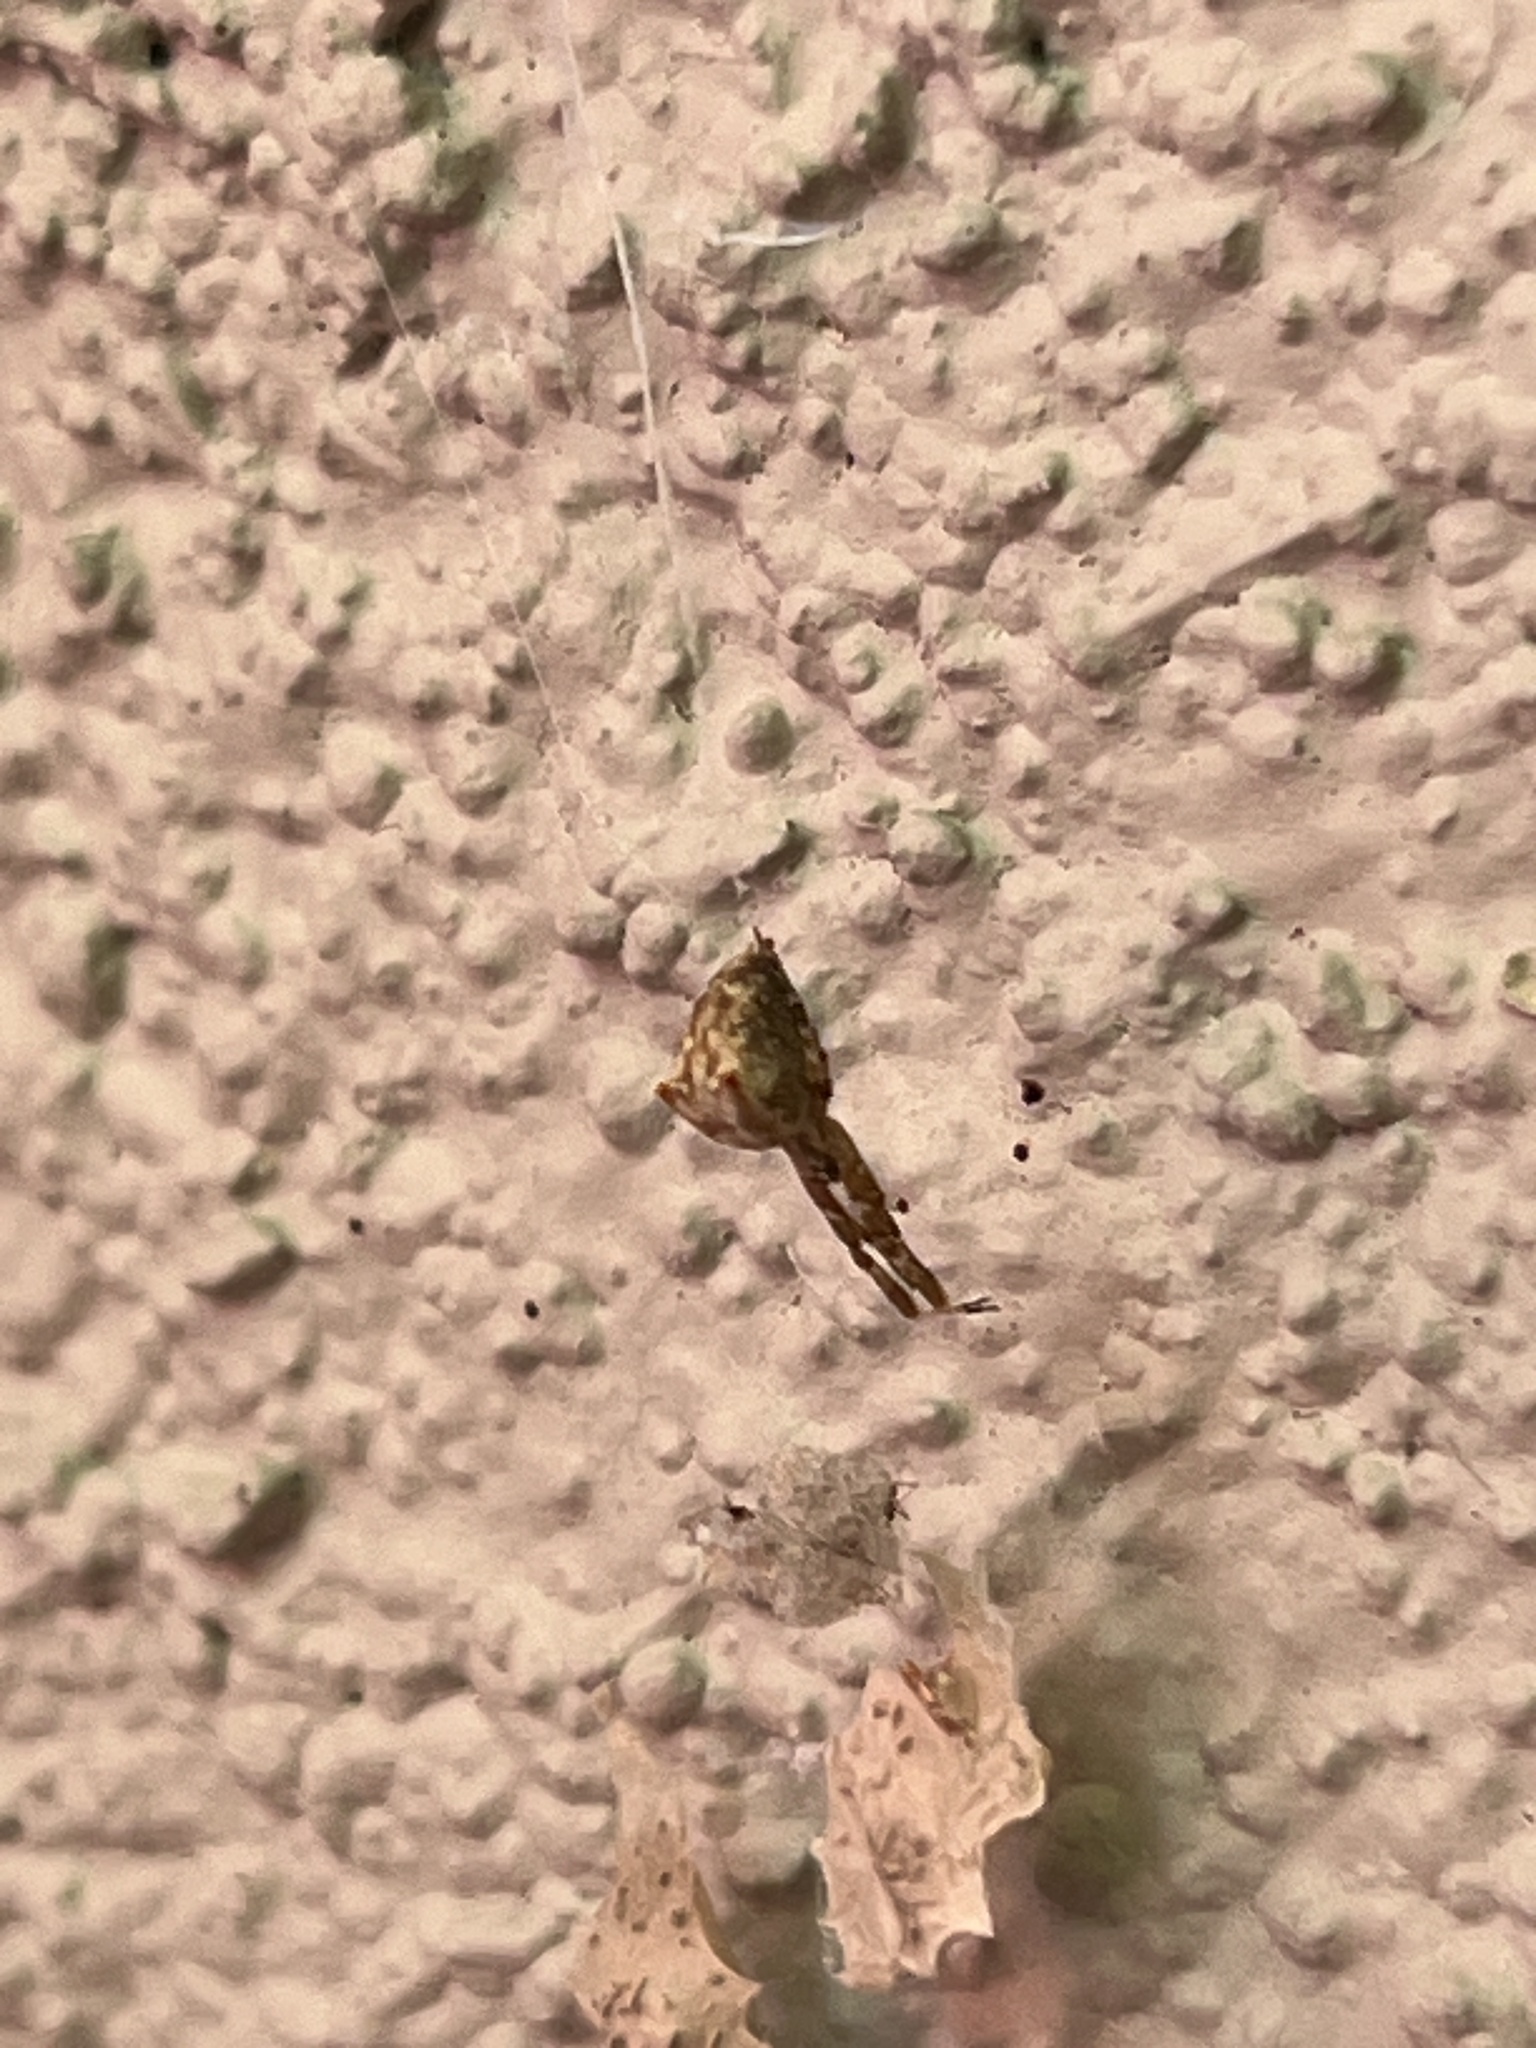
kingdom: Animalia
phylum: Arthropoda
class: Arachnida
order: Araneae
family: Uloboridae
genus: Uloborus
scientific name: Uloborus diversus
